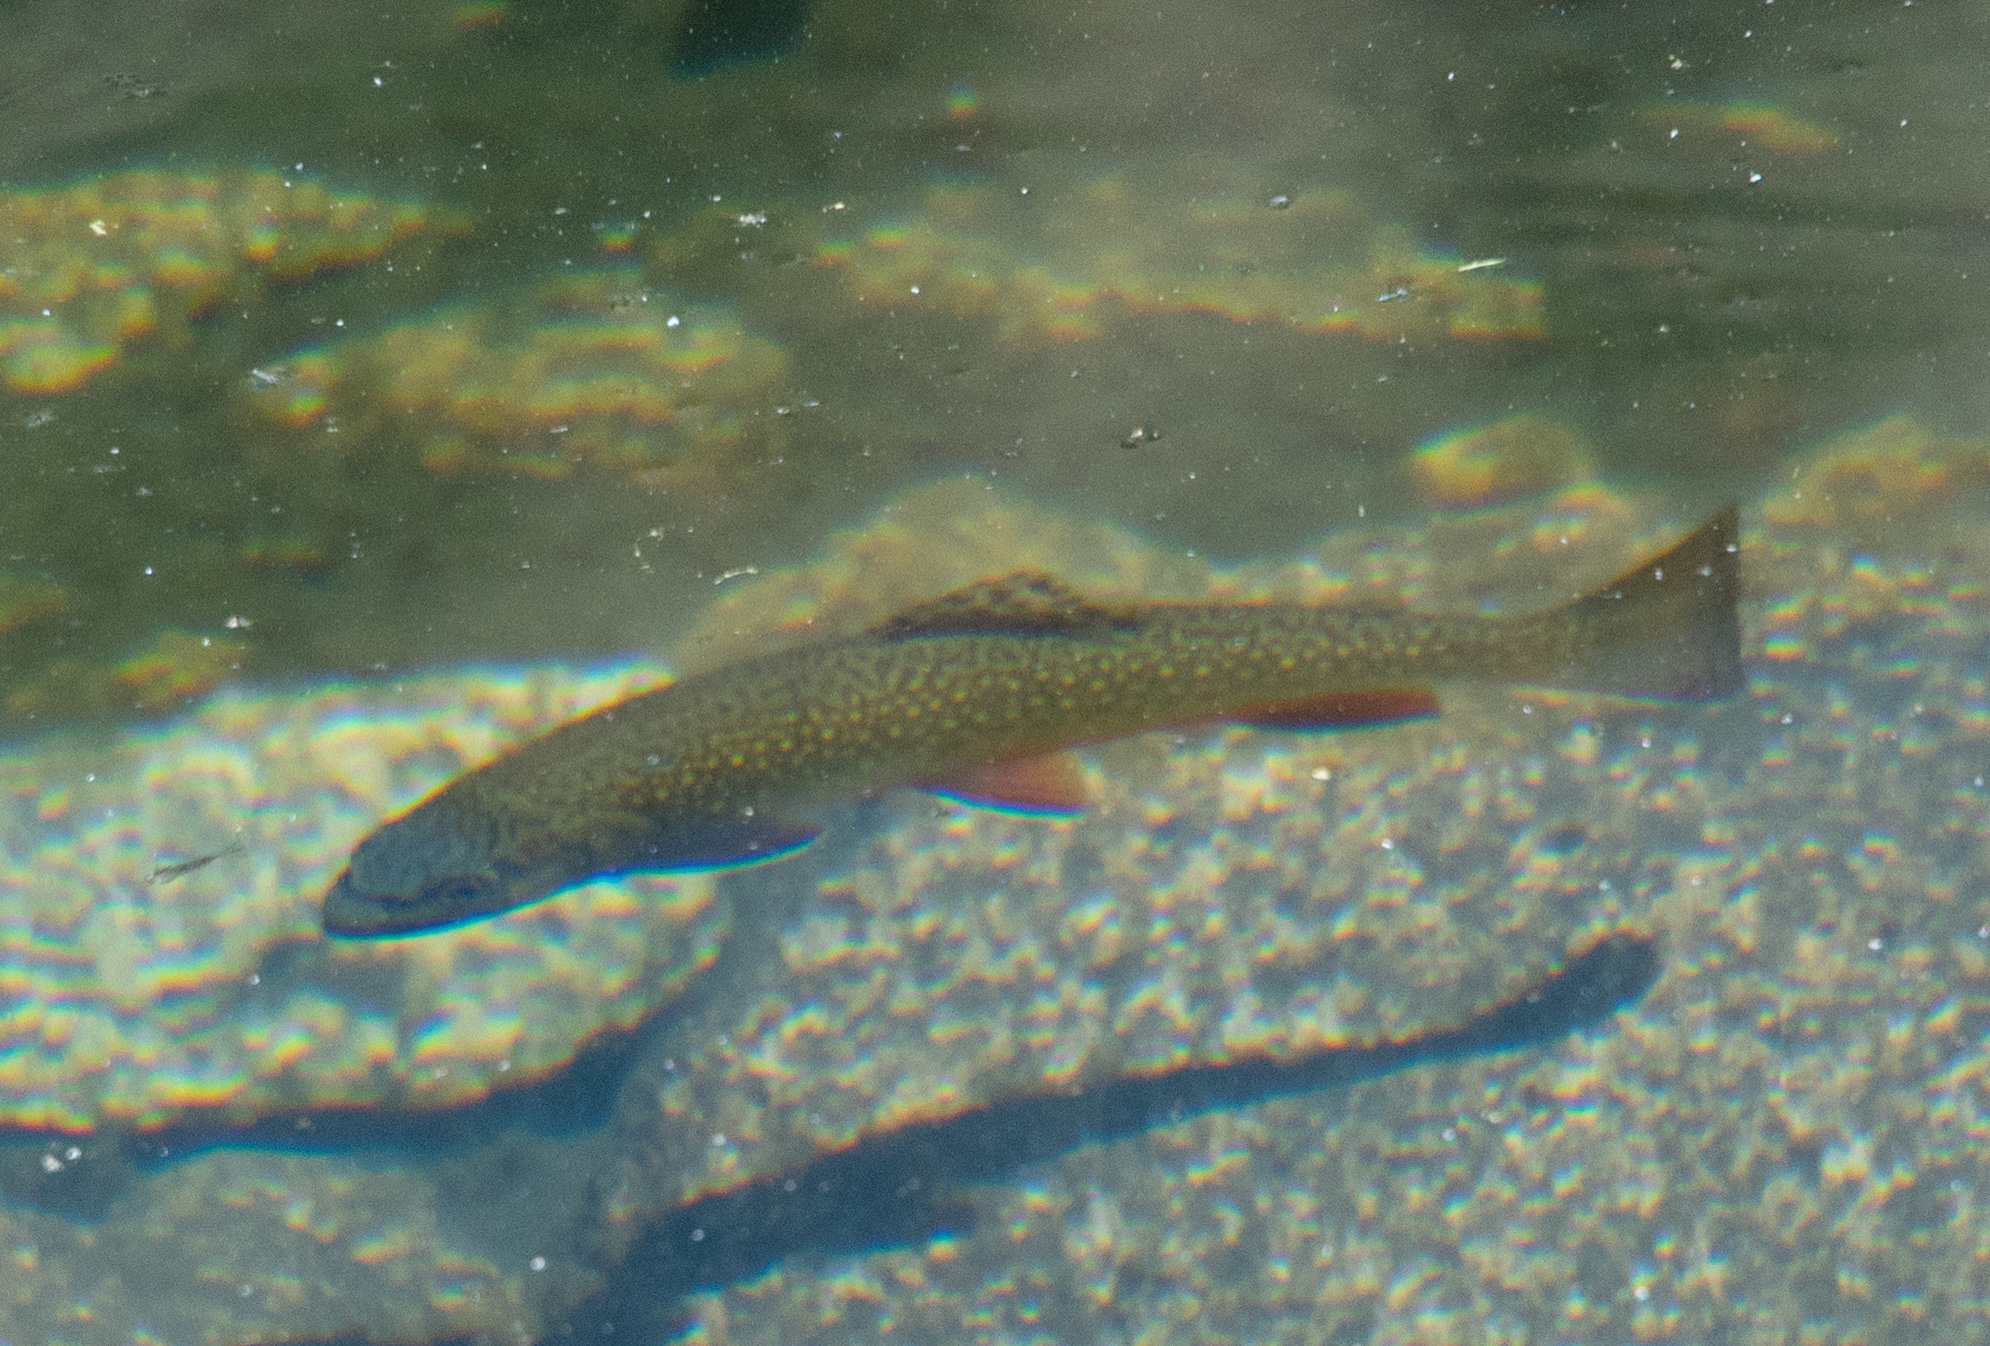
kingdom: Animalia
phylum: Chordata
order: Salmoniformes
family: Salmonidae
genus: Salvelinus
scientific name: Salvelinus fontinalis
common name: Brook trout
